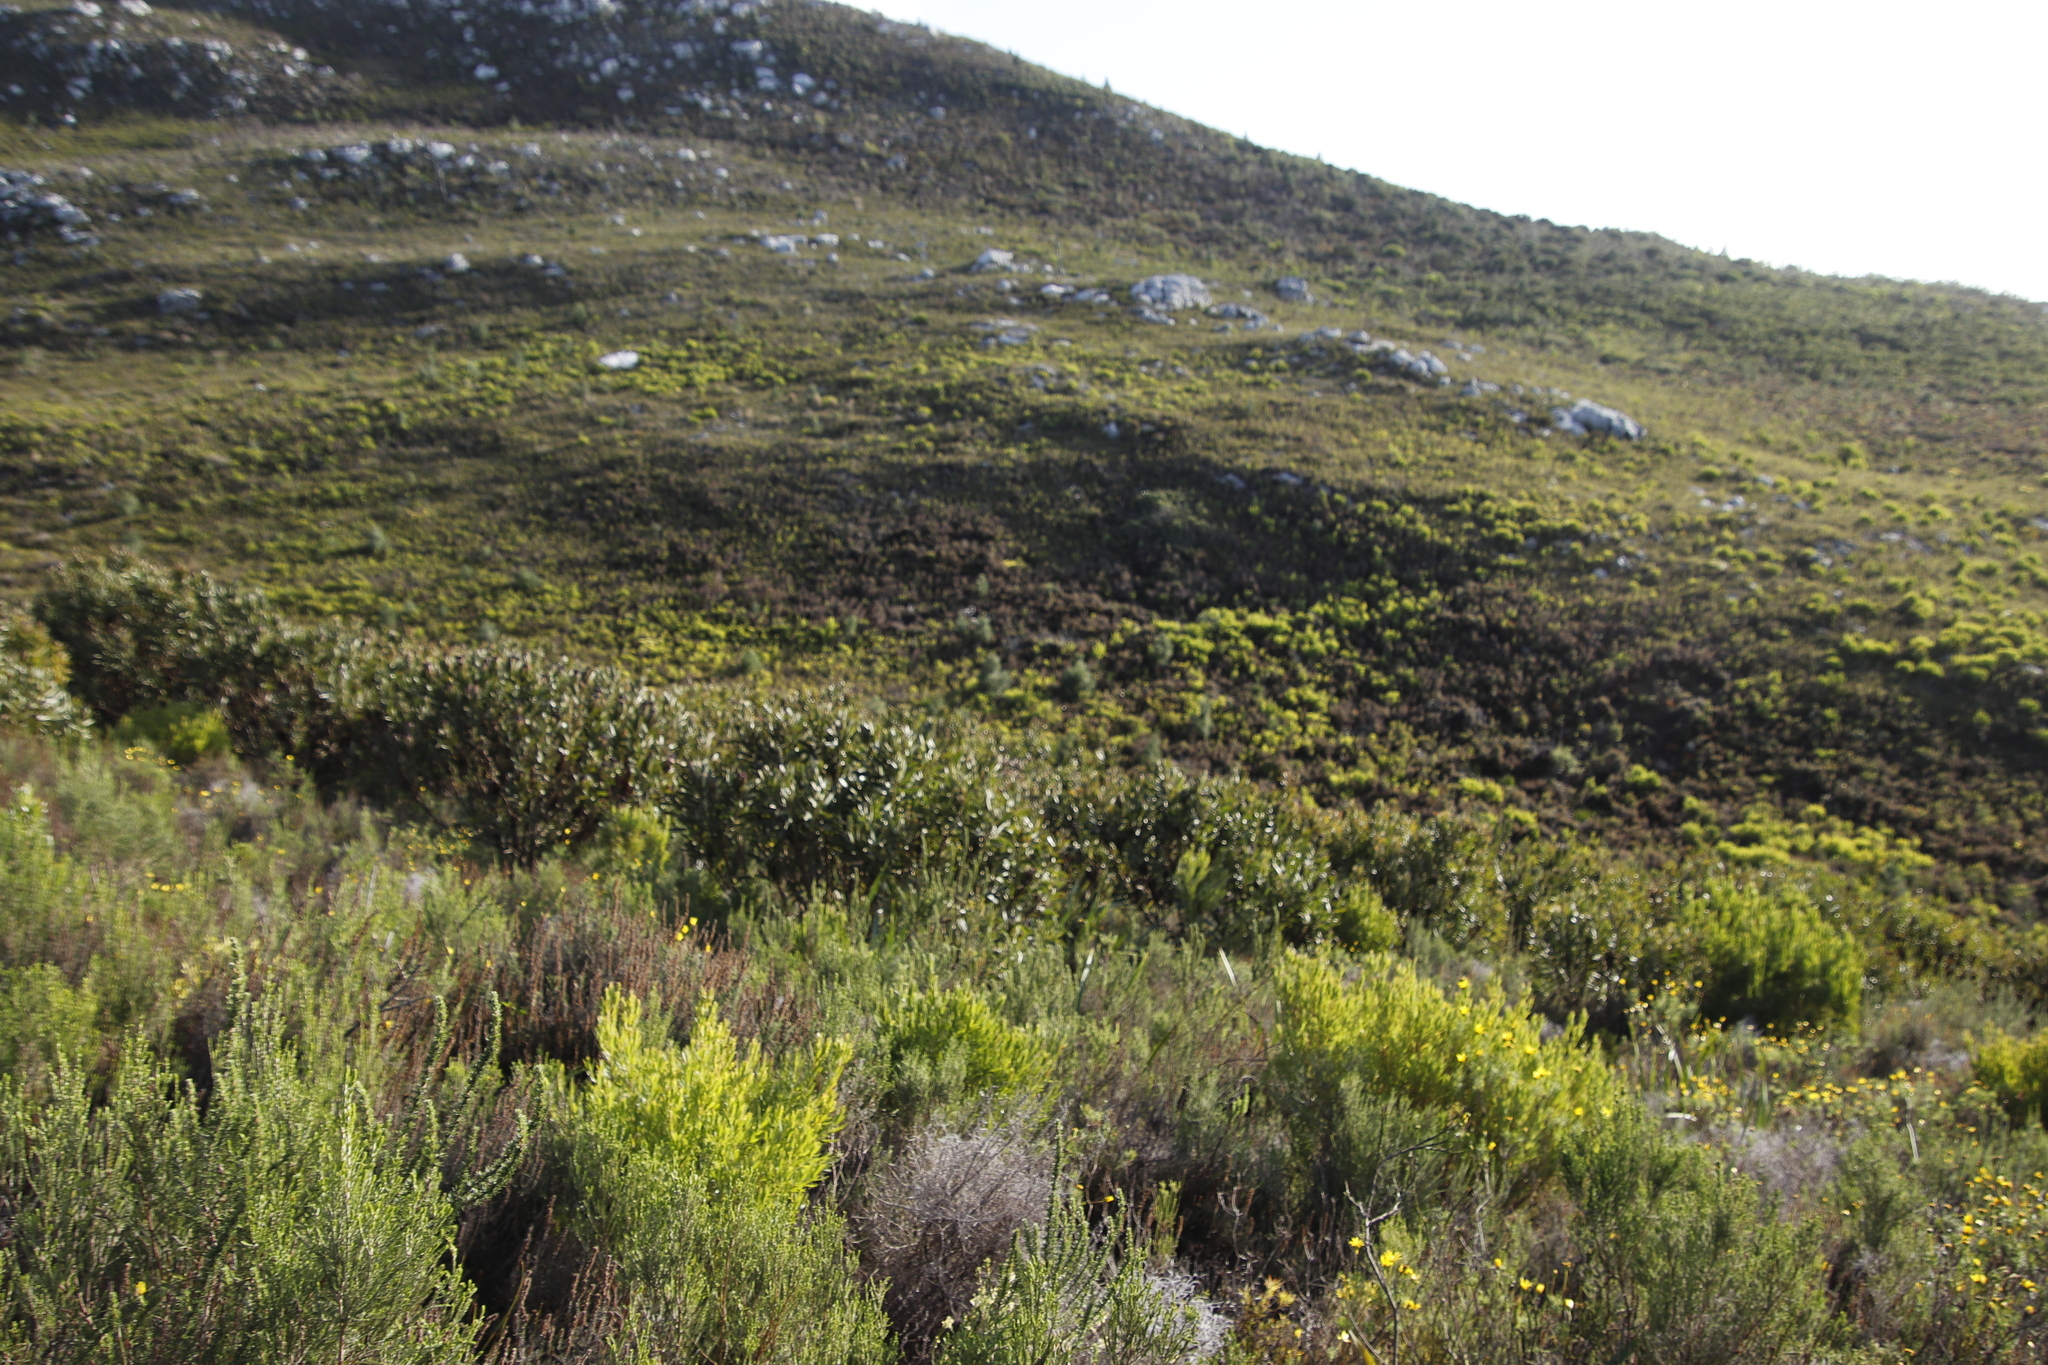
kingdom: Plantae
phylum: Tracheophyta
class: Magnoliopsida
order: Proteales
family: Proteaceae
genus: Protea
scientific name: Protea lepidocarpodendron
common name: Black-bearded protea
